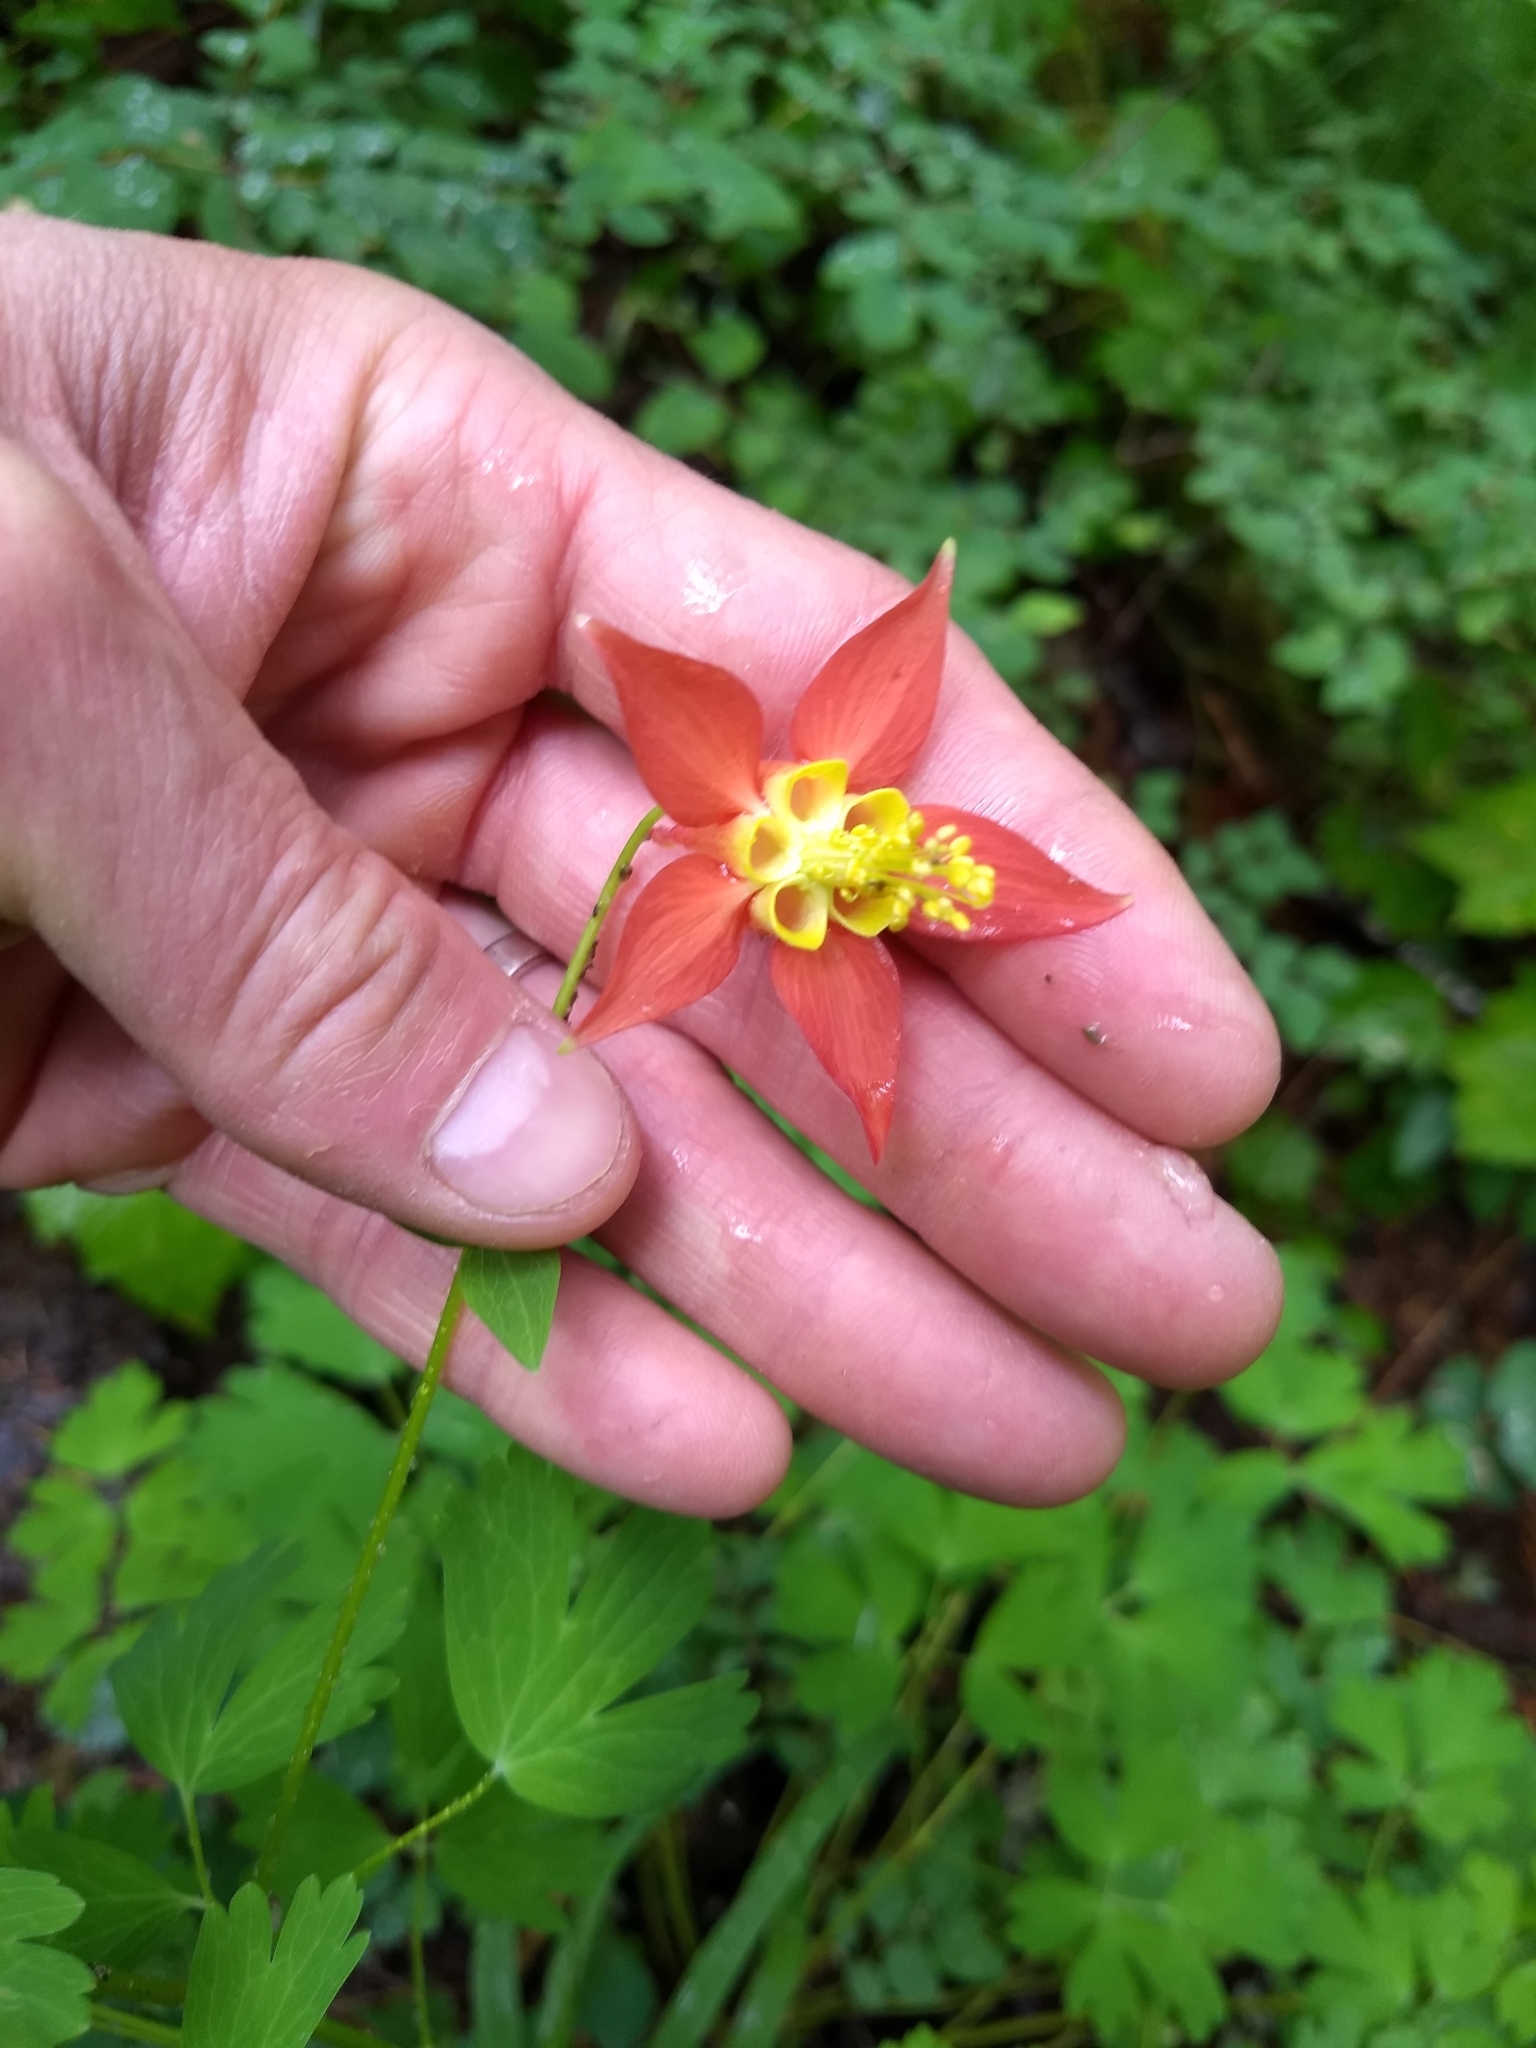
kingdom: Plantae
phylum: Tracheophyta
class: Magnoliopsida
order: Ranunculales
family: Ranunculaceae
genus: Aquilegia
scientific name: Aquilegia formosa
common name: Sitka columbine
